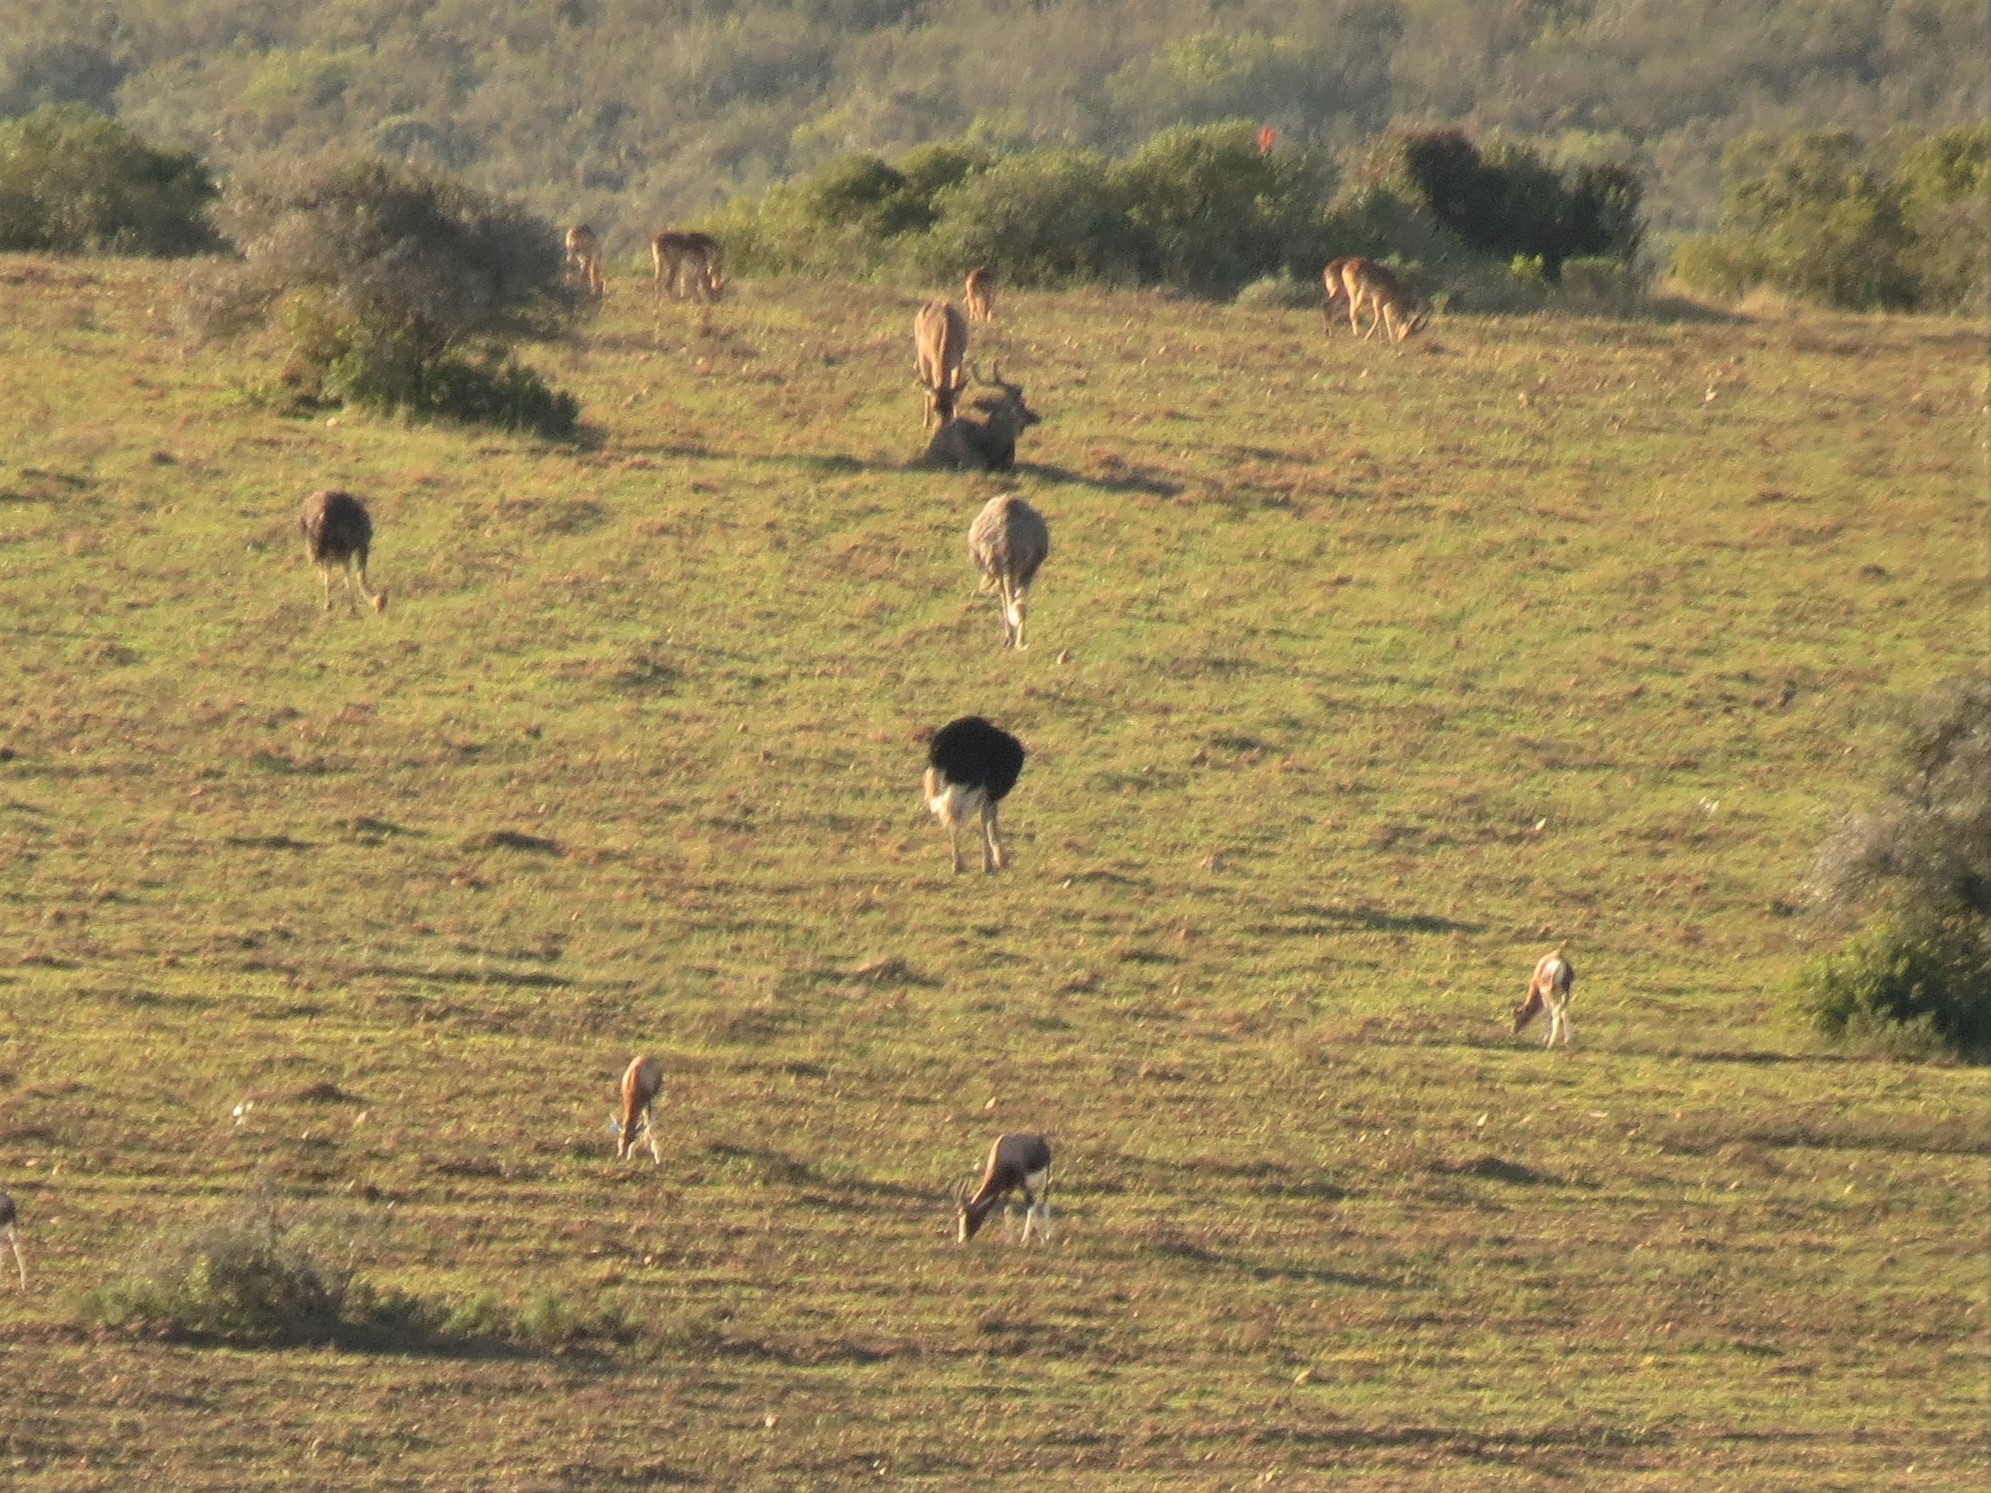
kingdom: Animalia
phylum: Chordata
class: Aves
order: Struthioniformes
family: Struthionidae
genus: Struthio
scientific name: Struthio camelus
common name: Common ostrich
